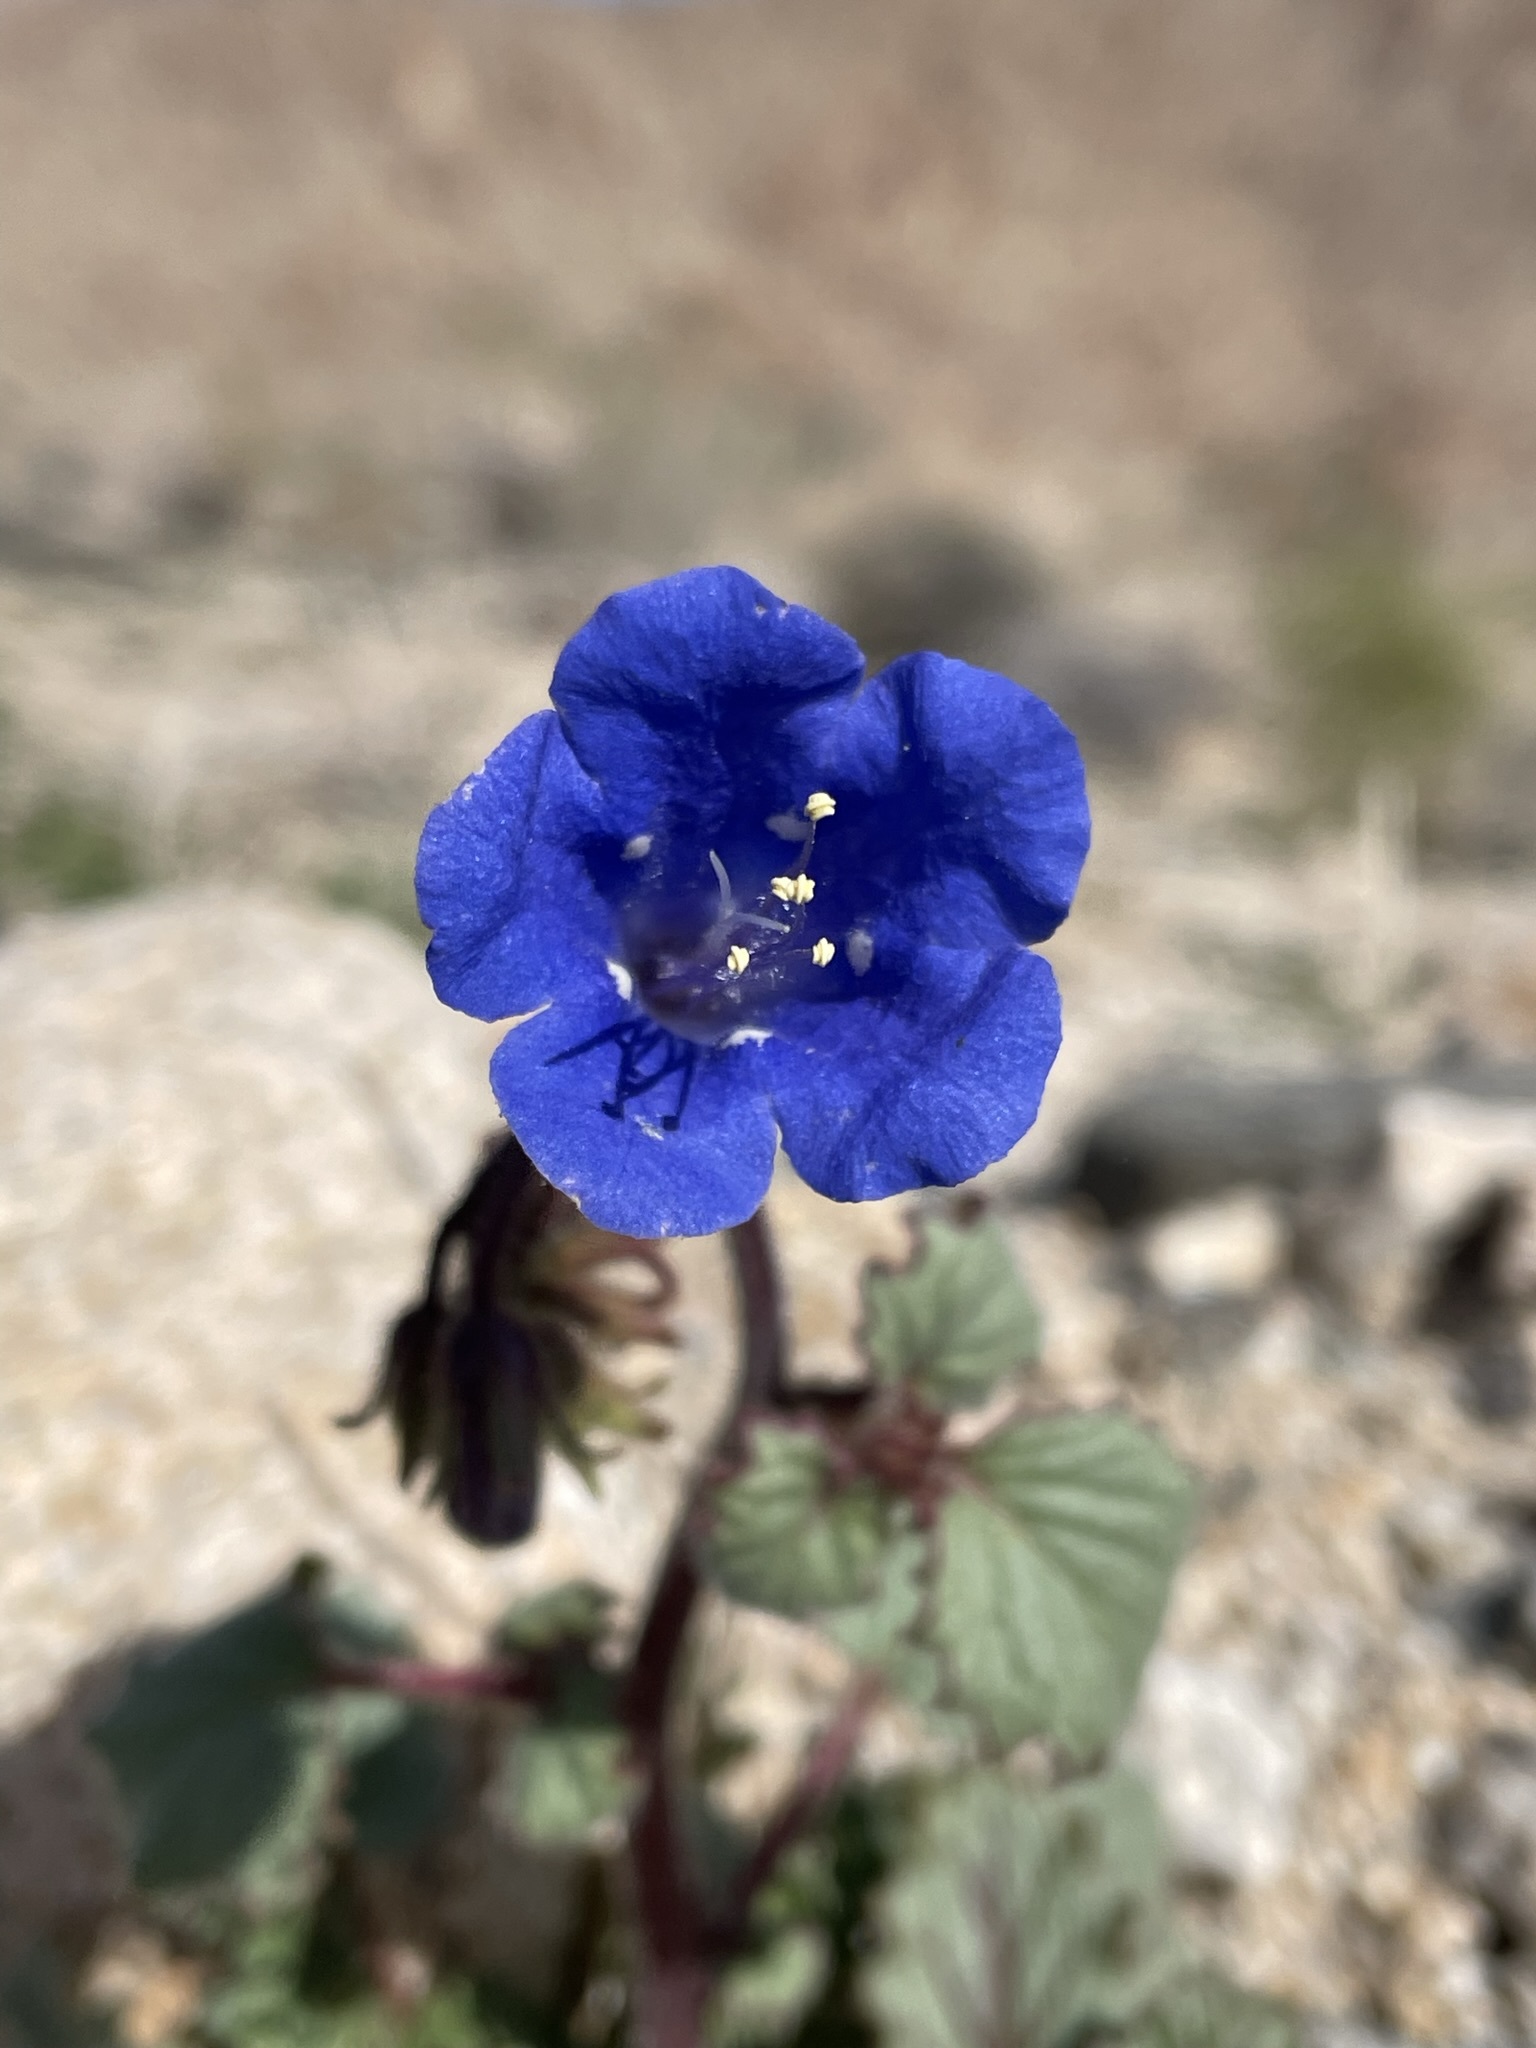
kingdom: Plantae
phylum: Tracheophyta
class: Magnoliopsida
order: Boraginales
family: Hydrophyllaceae
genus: Phacelia
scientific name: Phacelia campanularia
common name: California bluebell
